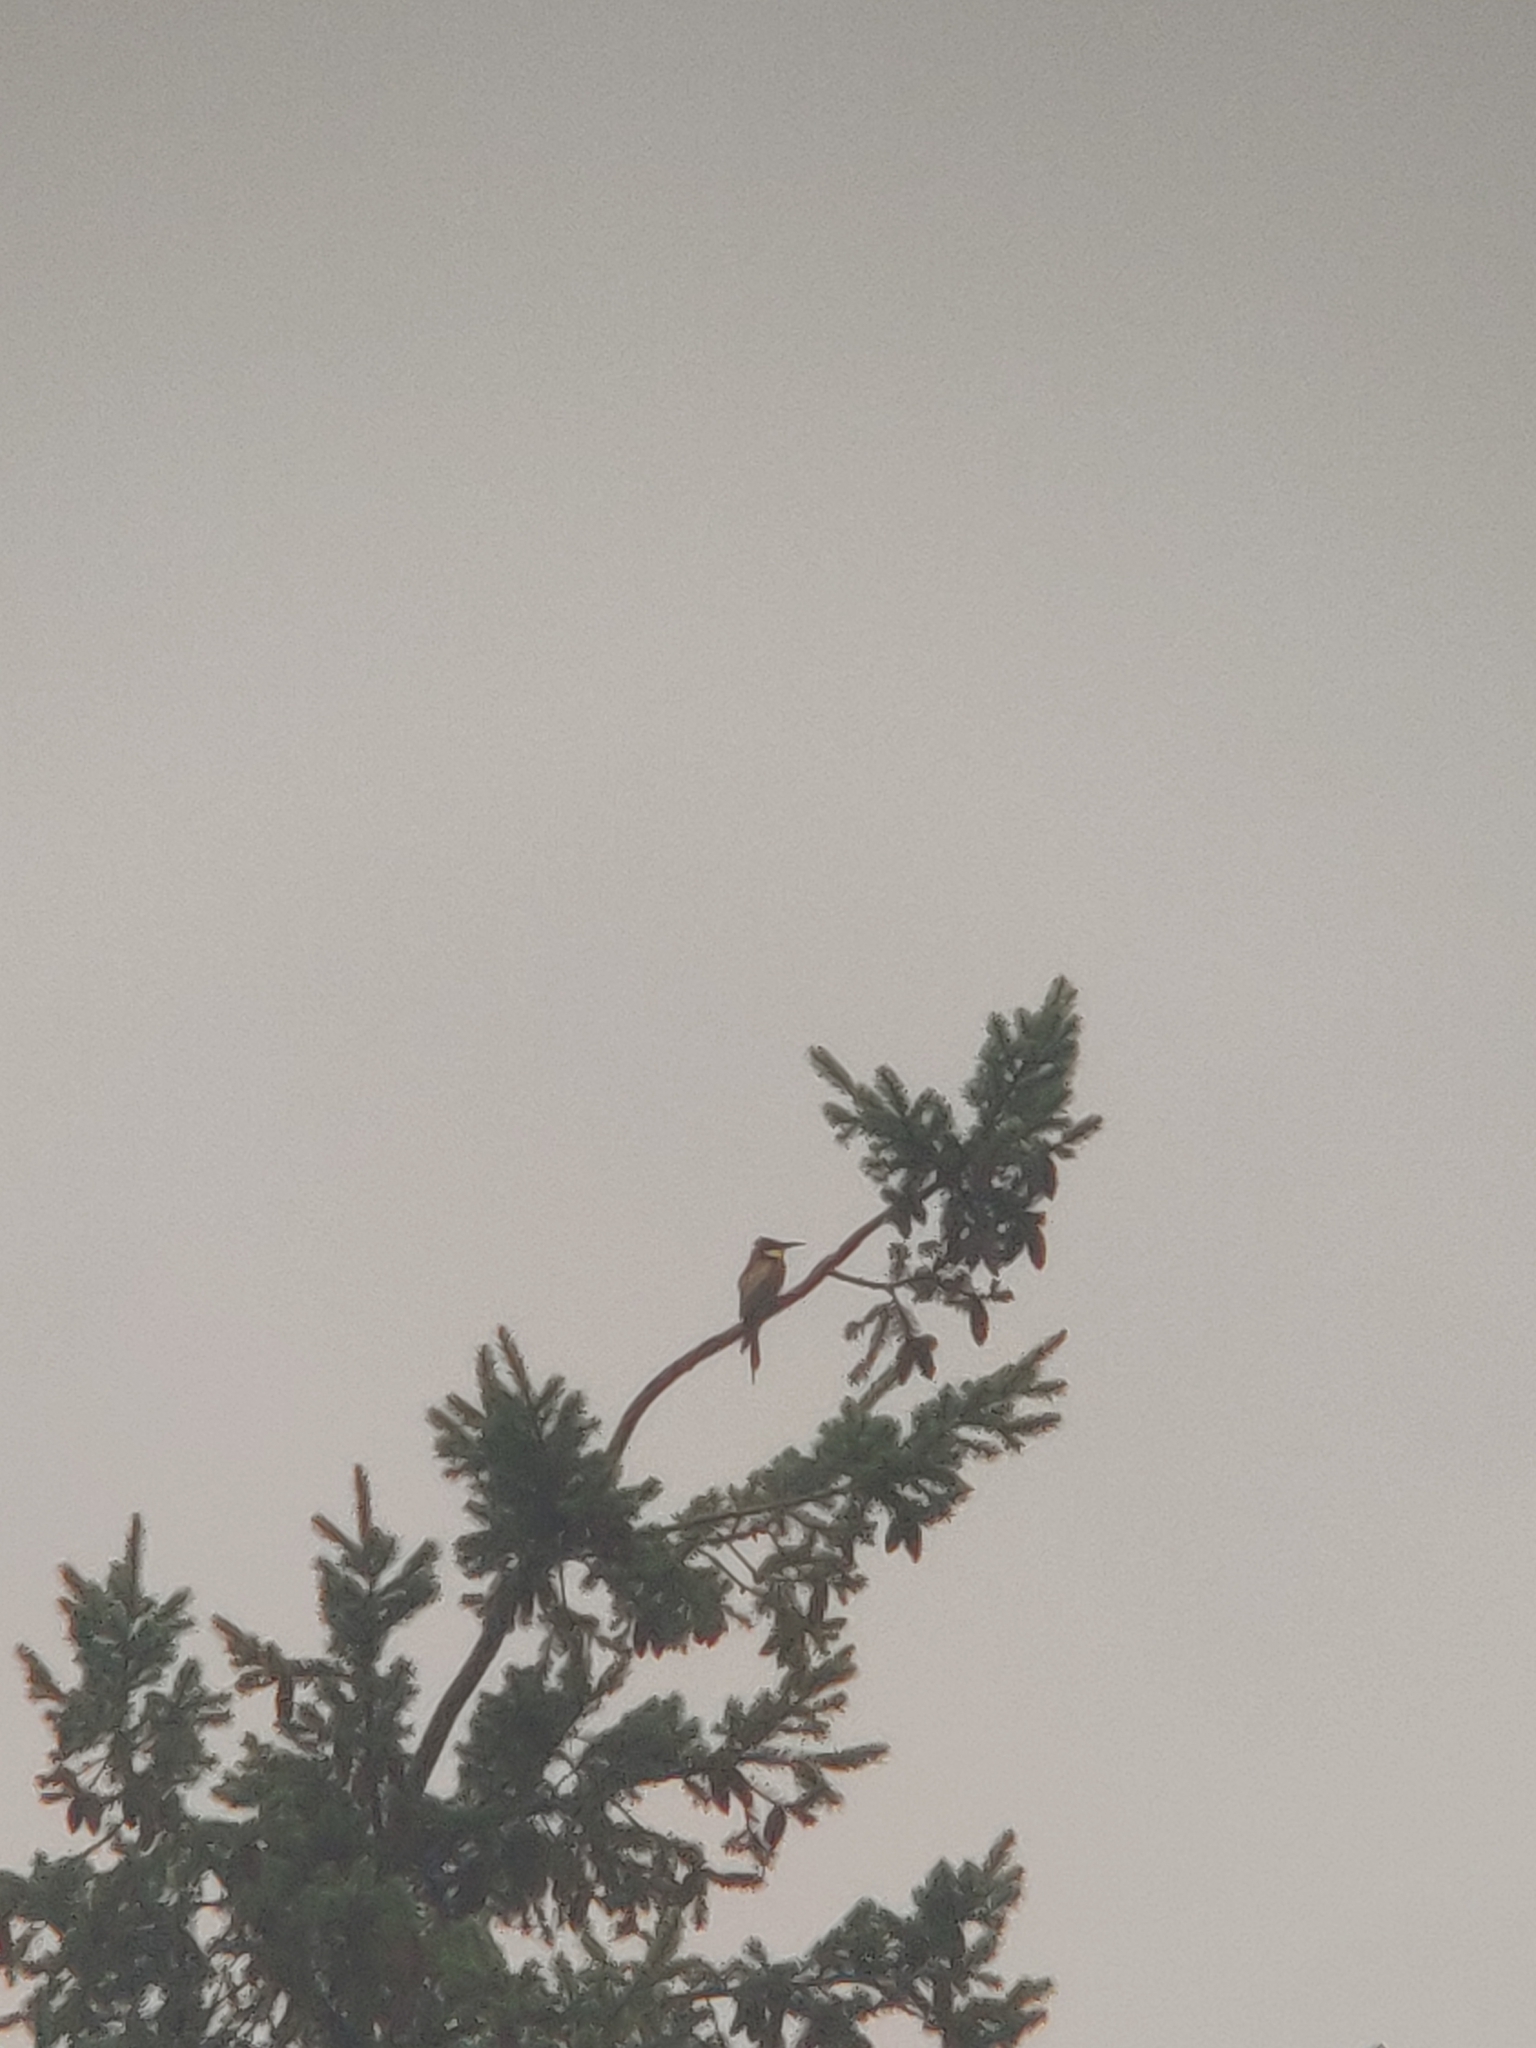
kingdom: Animalia
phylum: Chordata
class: Aves
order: Coraciiformes
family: Meropidae
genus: Merops
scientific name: Merops apiaster
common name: European bee-eater
